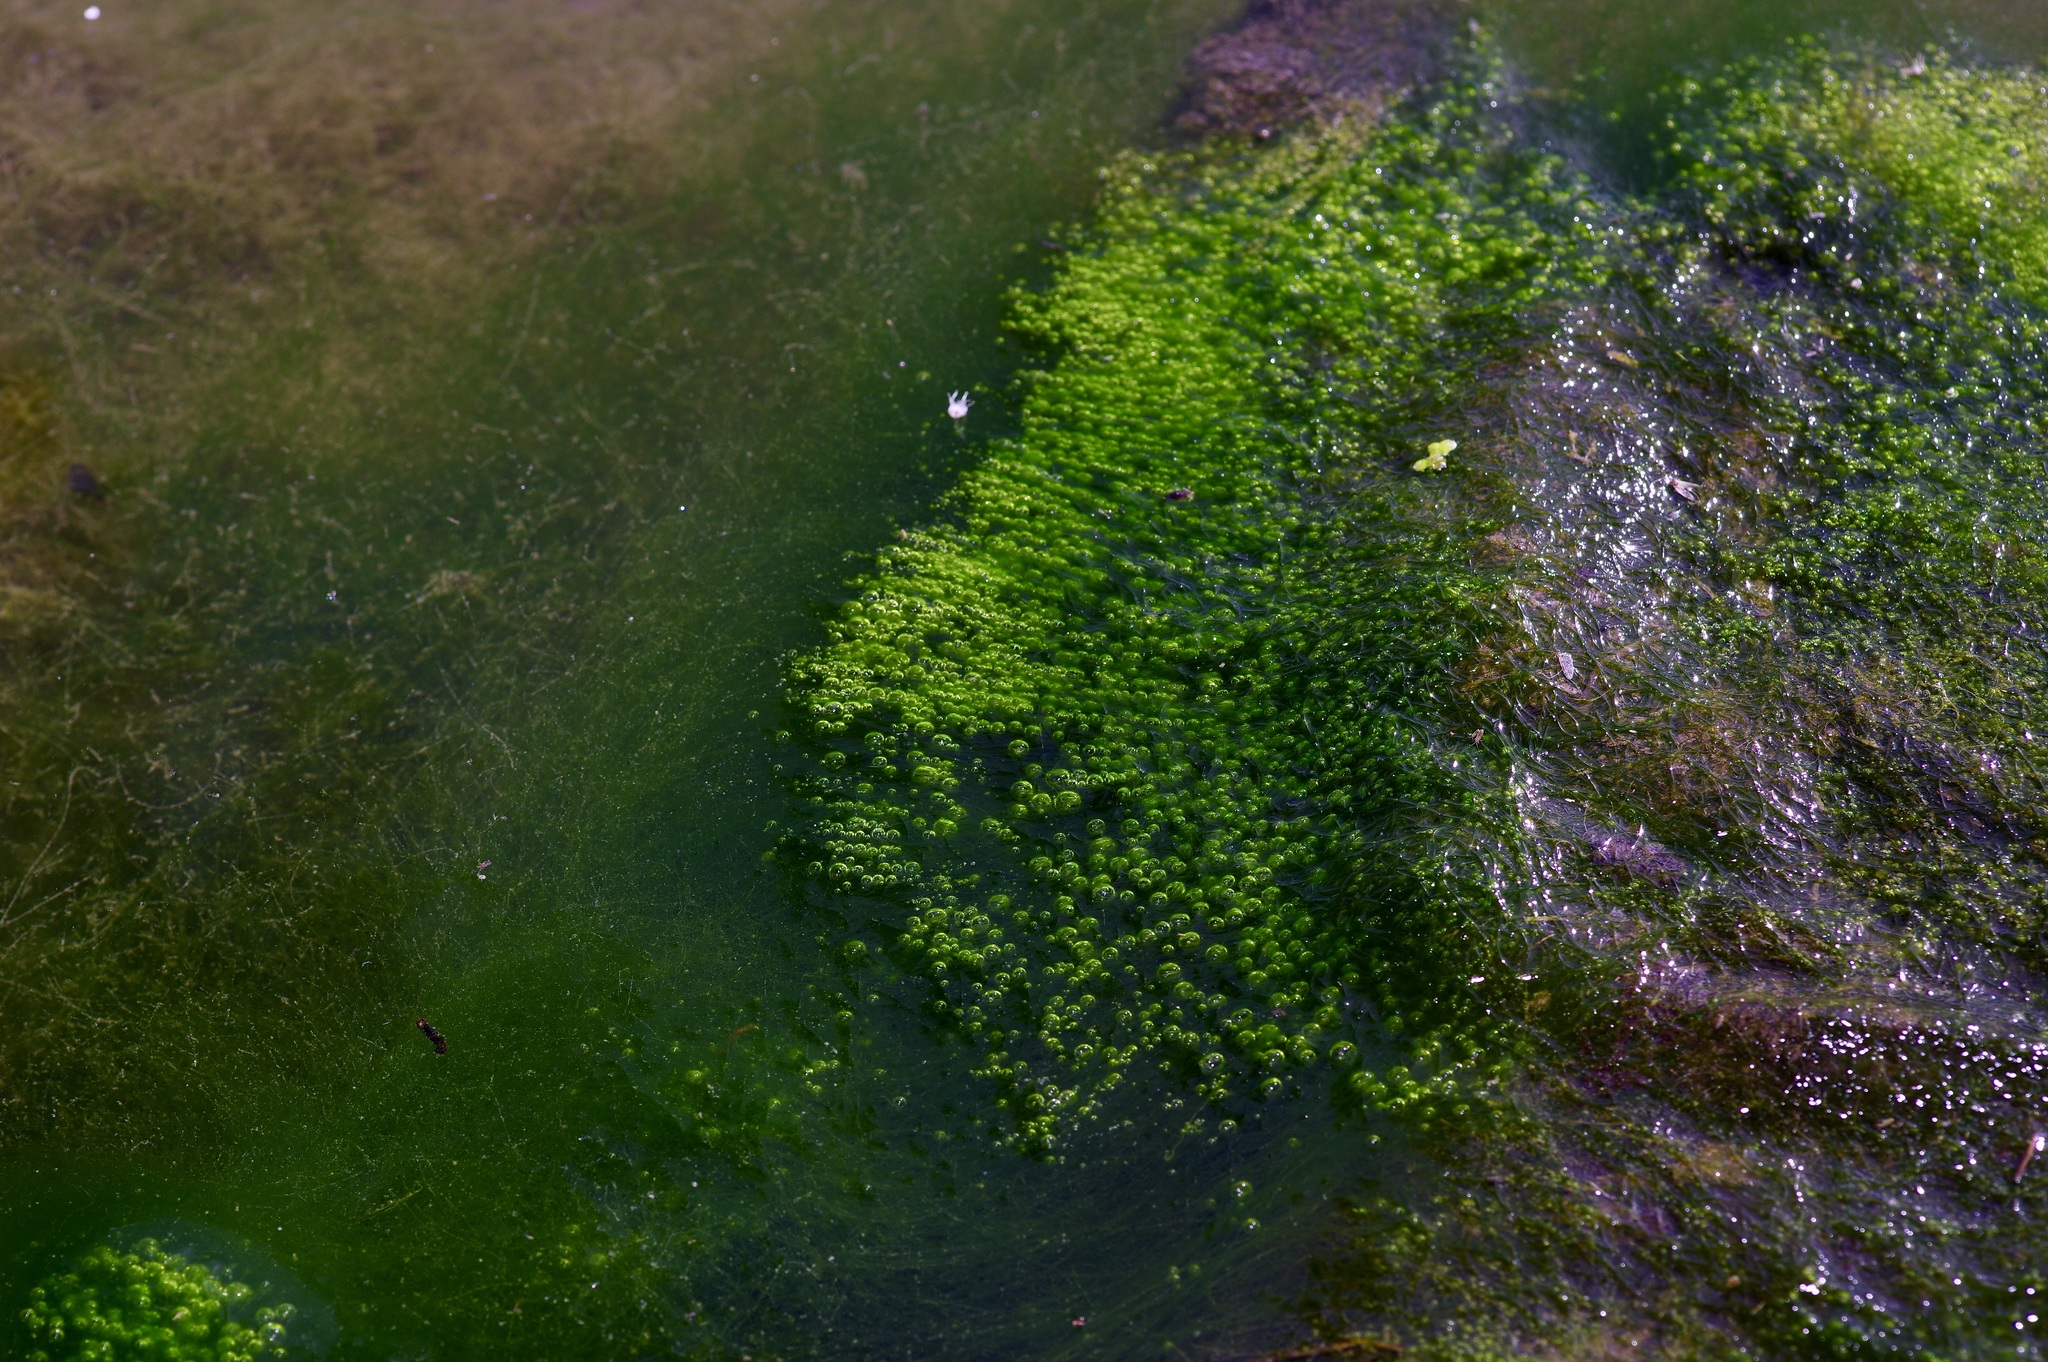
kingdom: Chromista
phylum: Ochrophyta
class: Xanthophyceae
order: Vaucheriales
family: Vaucheriaceae
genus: Vaucheria
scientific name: Vaucheria
